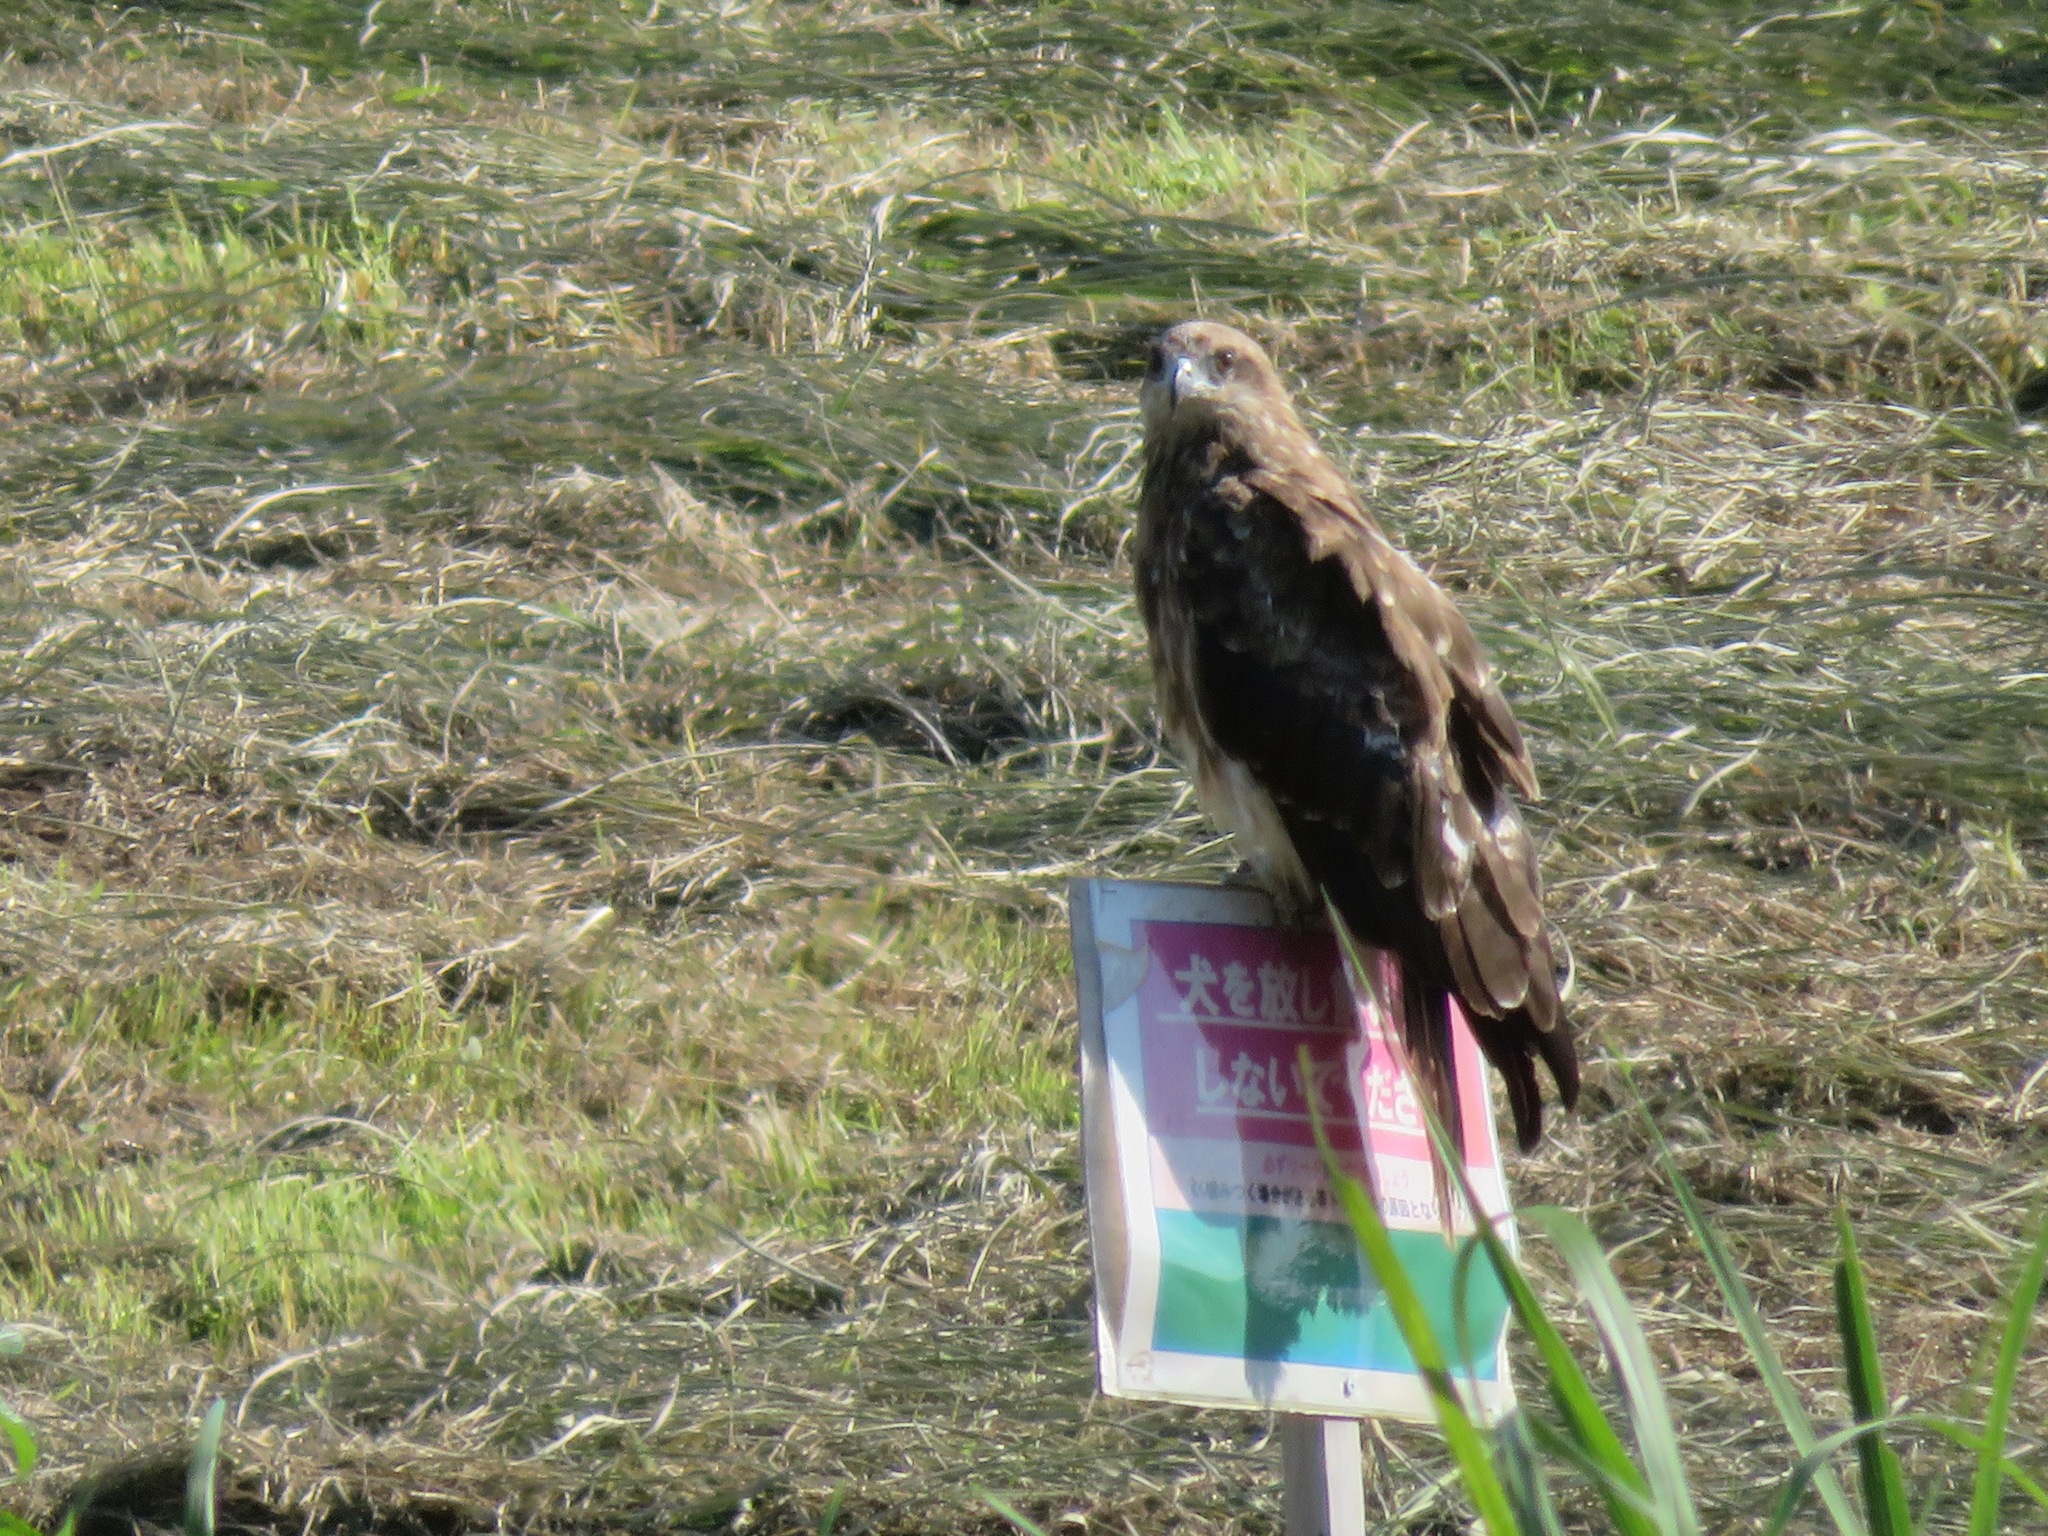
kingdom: Animalia
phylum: Chordata
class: Aves
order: Accipitriformes
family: Accipitridae
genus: Milvus
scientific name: Milvus migrans
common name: Black kite
